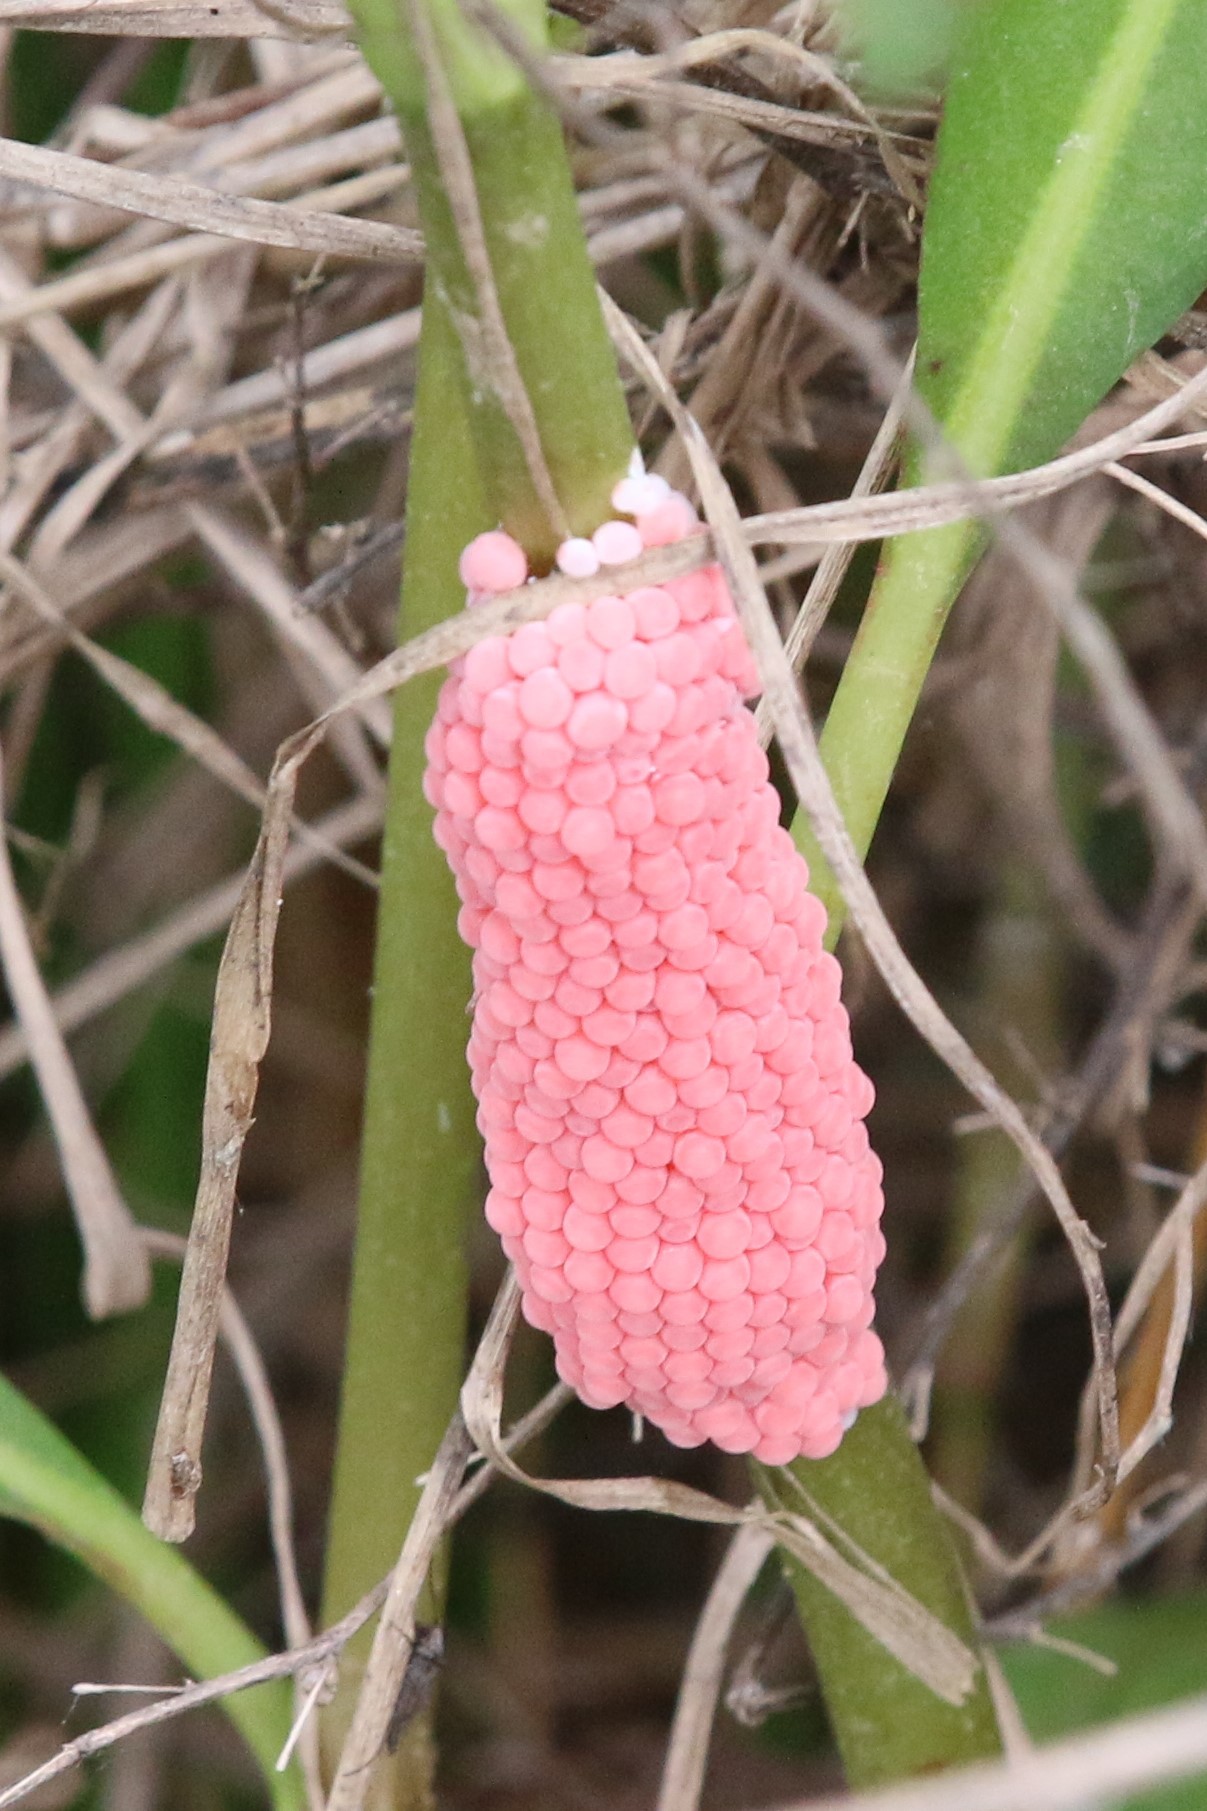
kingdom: Animalia
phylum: Mollusca
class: Gastropoda
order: Architaenioglossa
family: Ampullariidae
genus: Pomacea
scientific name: Pomacea canaliculata
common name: Channeled applesnail
